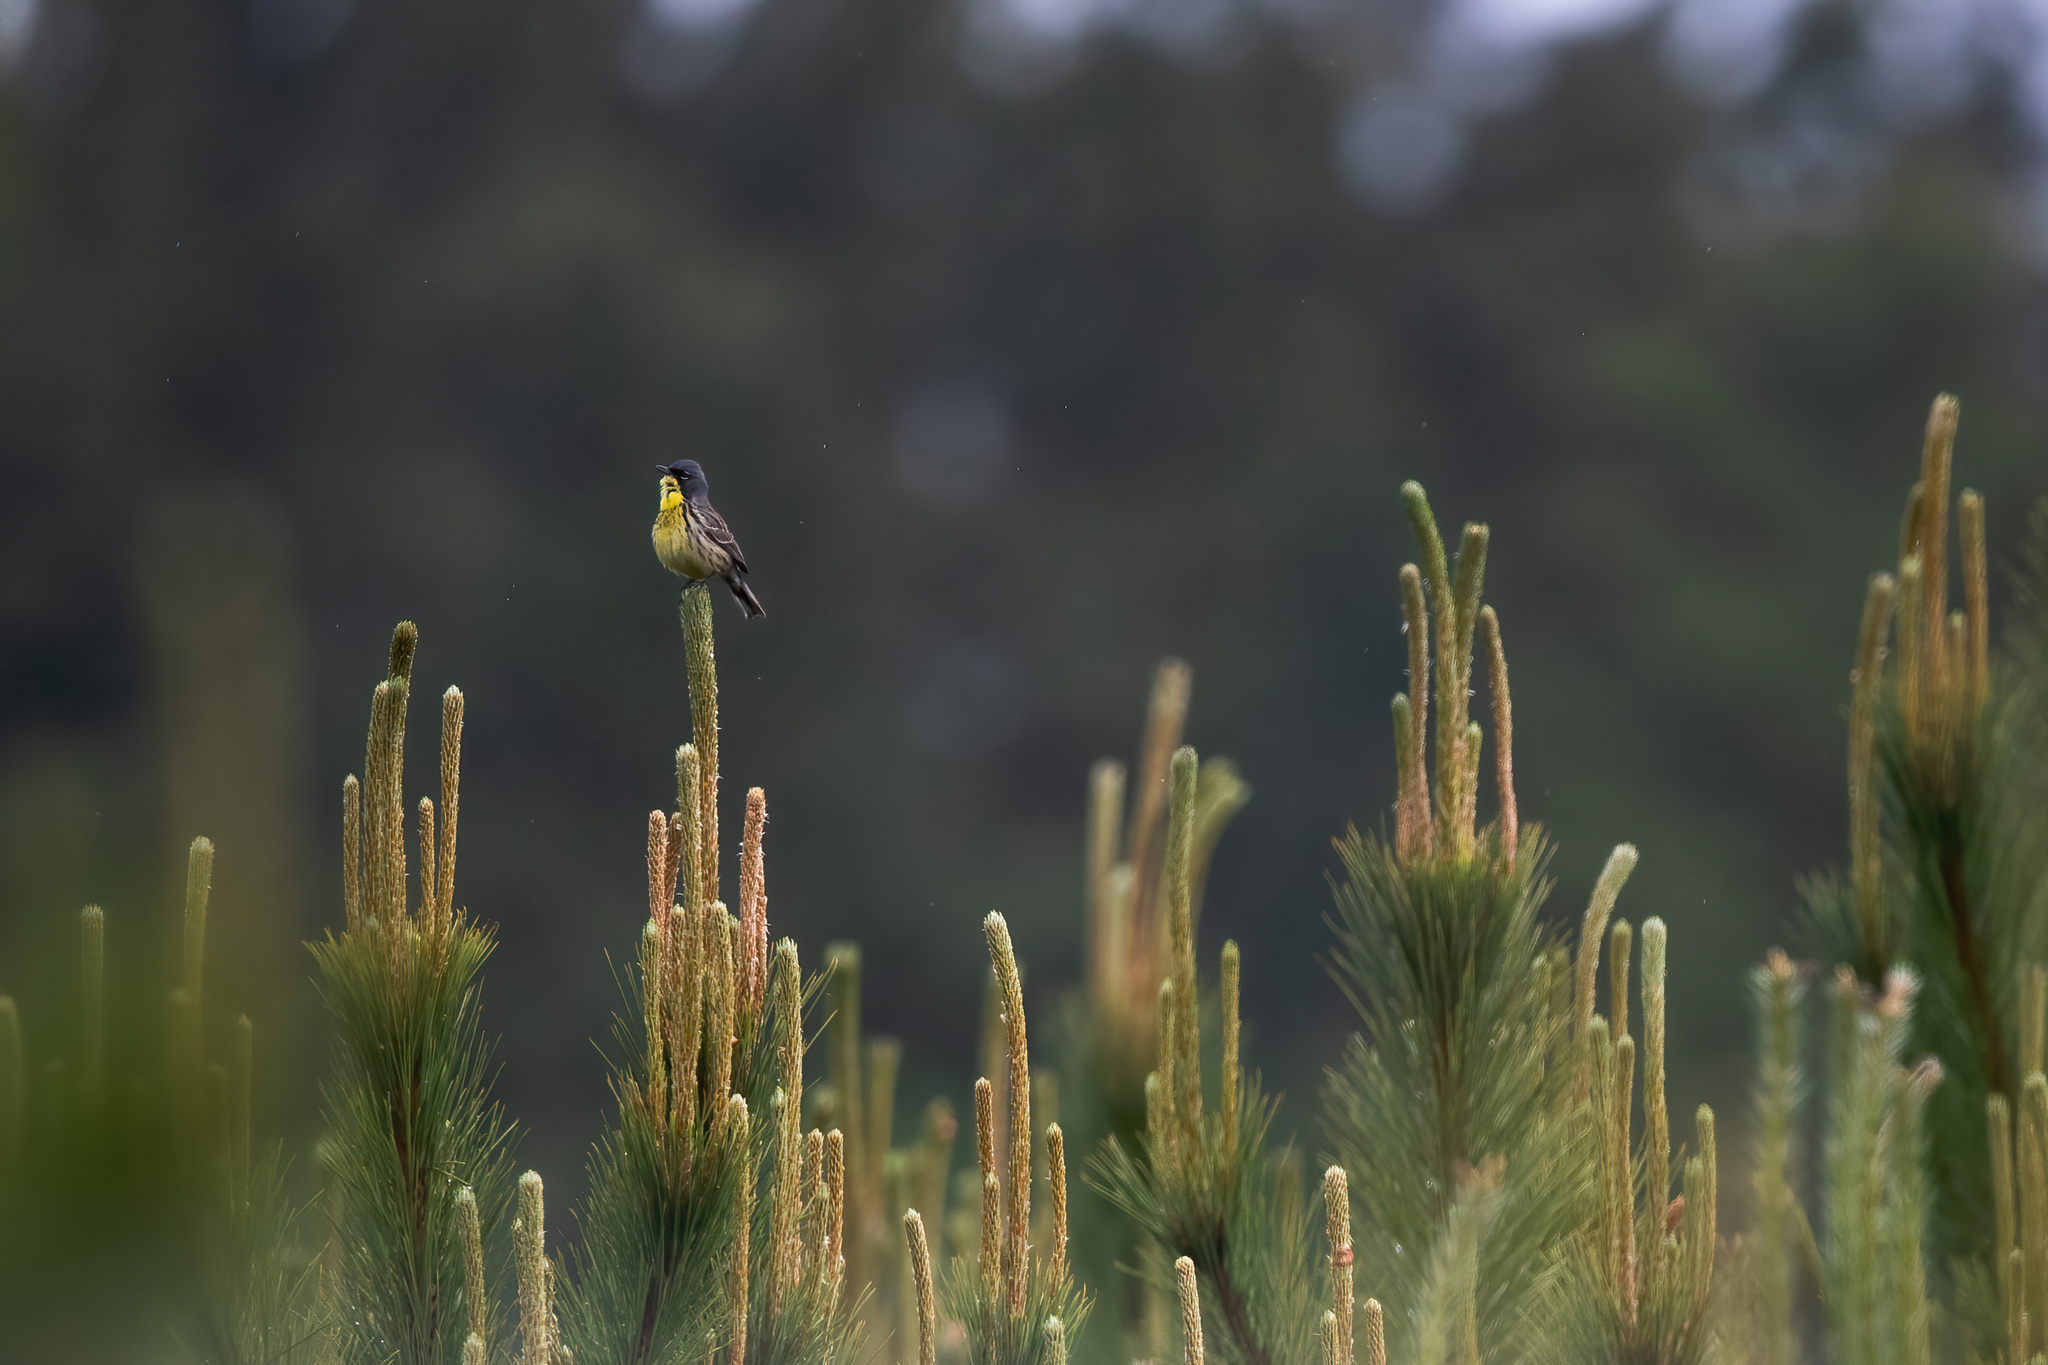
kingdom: Animalia
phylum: Chordata
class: Aves
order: Passeriformes
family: Parulidae
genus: Setophaga
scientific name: Setophaga kirtlandii
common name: Kirtland's warbler
